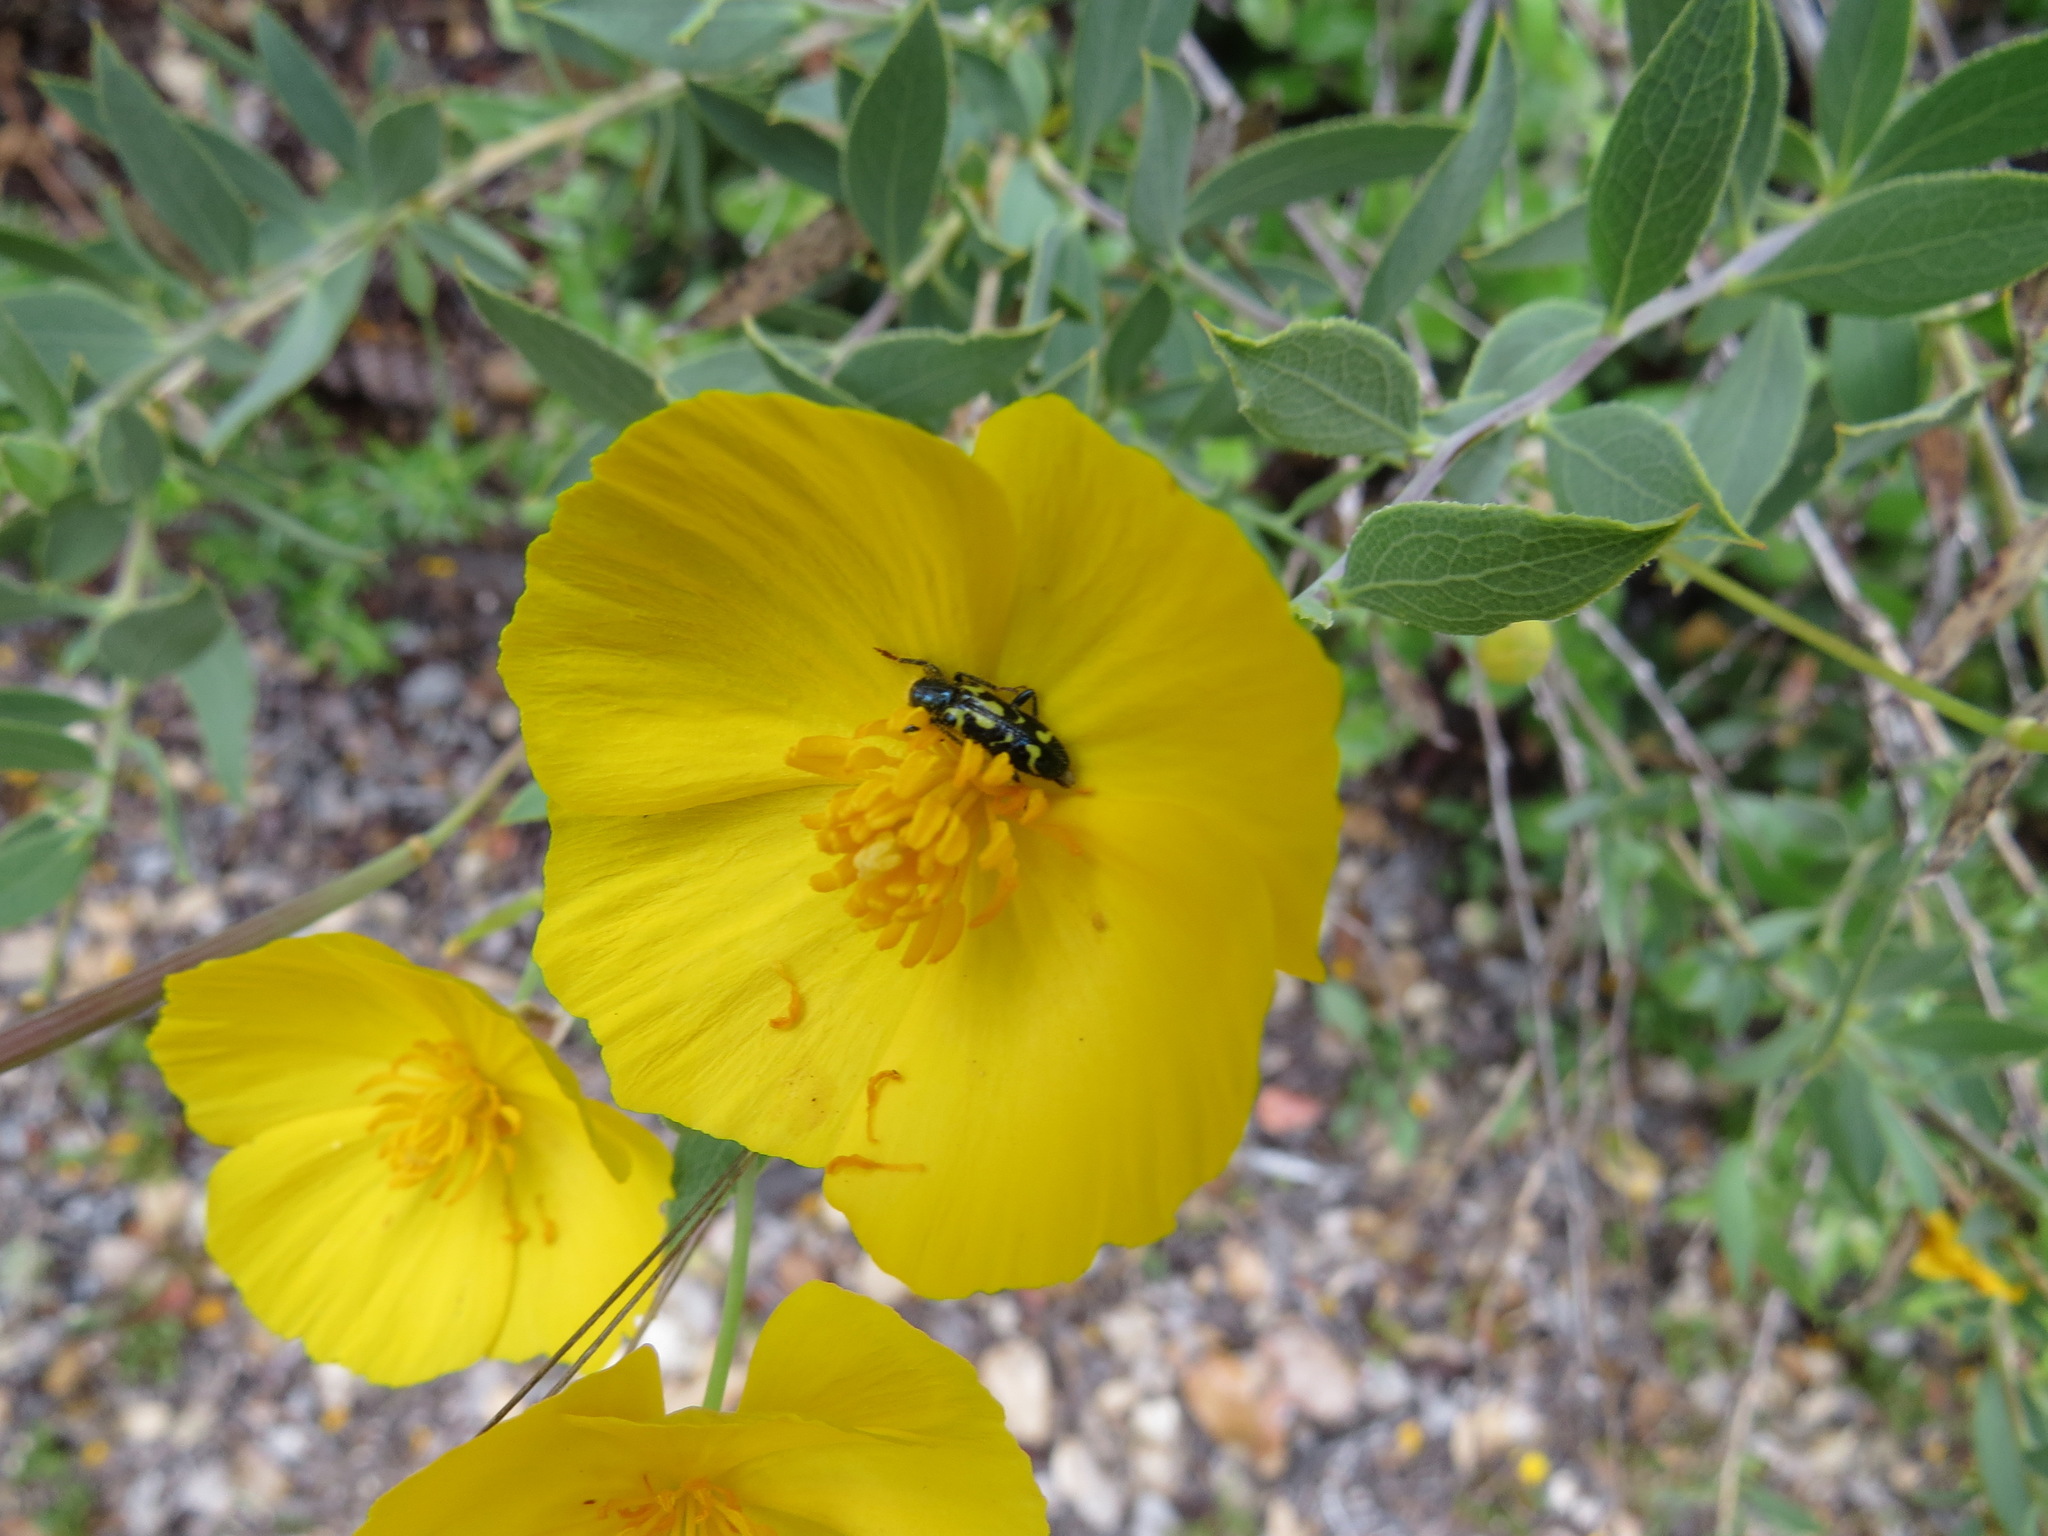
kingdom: Animalia
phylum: Arthropoda
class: Insecta
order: Coleoptera
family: Cleridae
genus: Trichodes
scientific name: Trichodes ornatus
